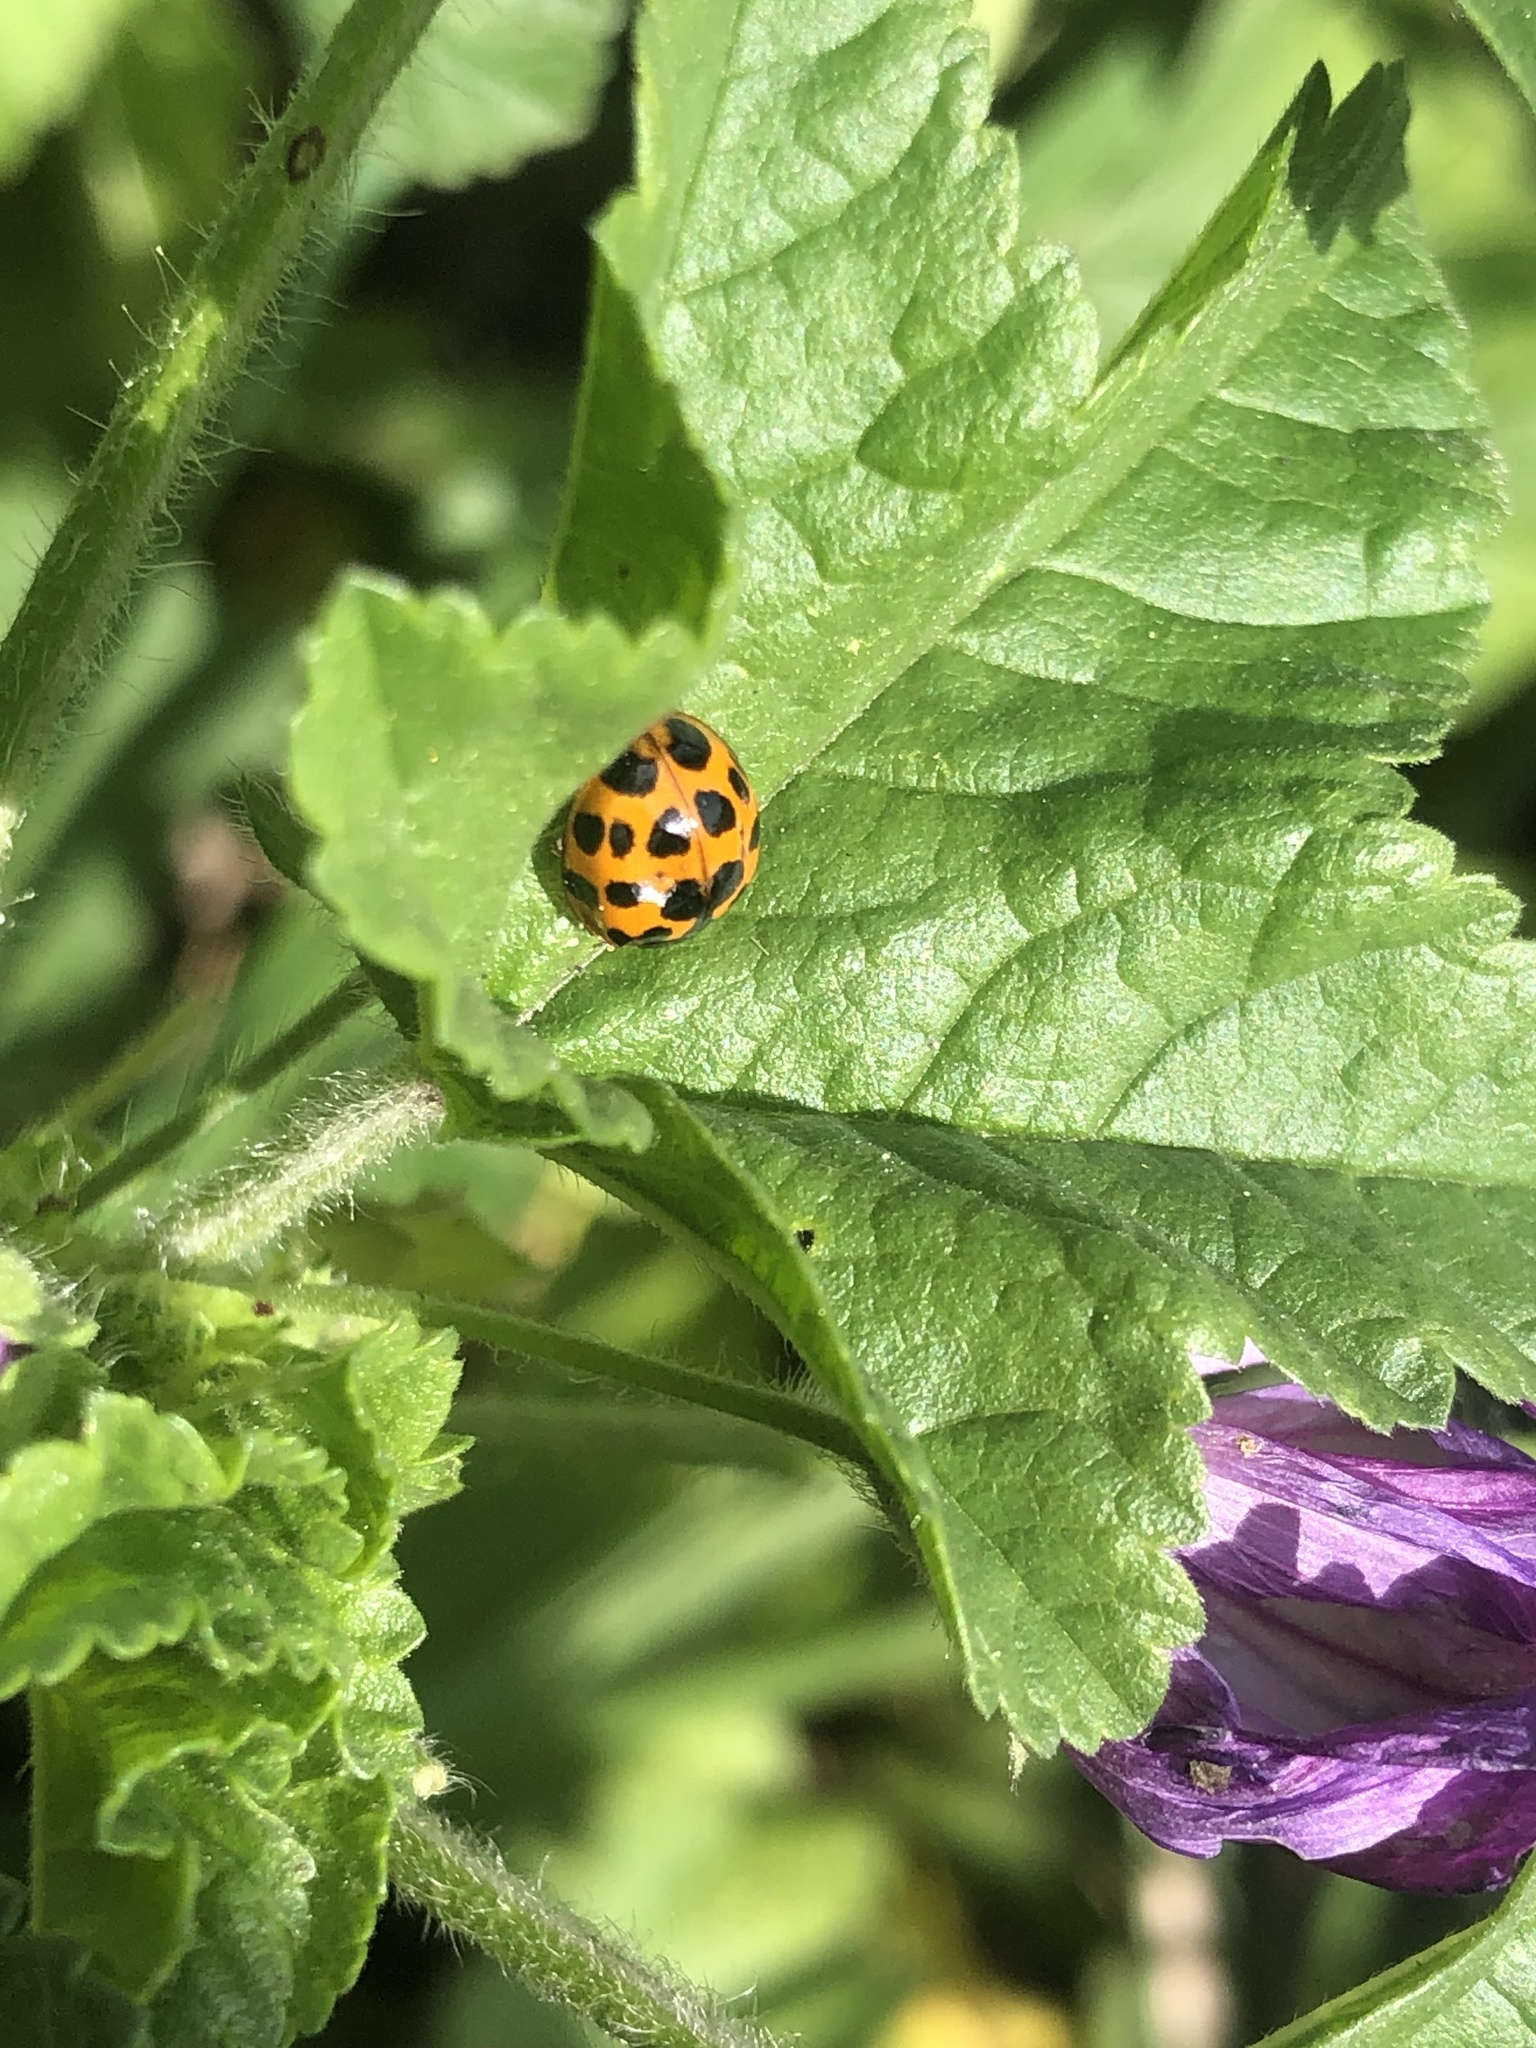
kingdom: Animalia
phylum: Arthropoda
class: Insecta
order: Coleoptera
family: Coccinellidae
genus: Harmonia
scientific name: Harmonia axyridis
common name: Harlequin ladybird
